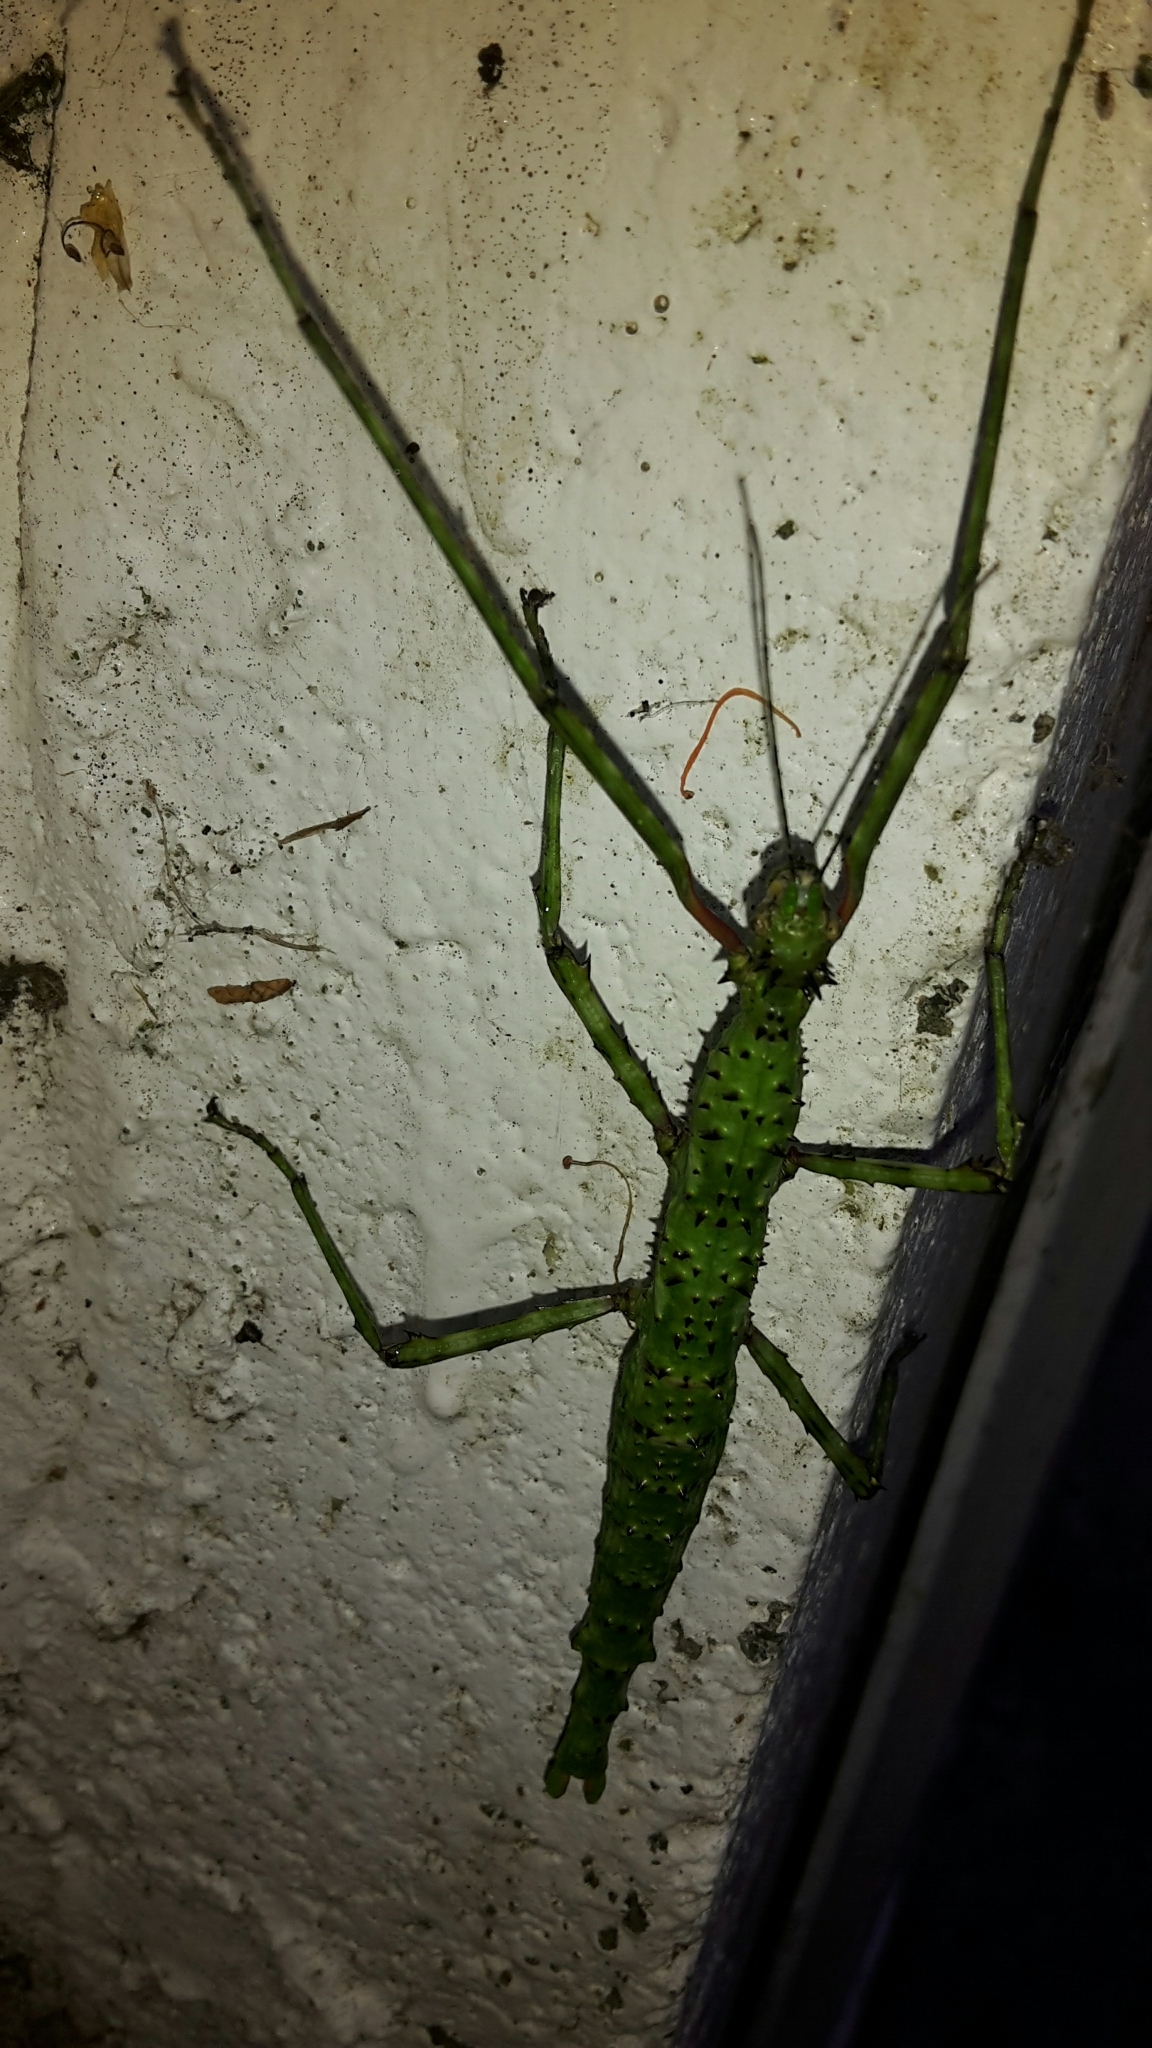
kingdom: Animalia
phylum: Arthropoda
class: Insecta
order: Phasmida
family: Phasmatidae
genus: Acanthoxyla
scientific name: Acanthoxyla prasina
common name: Black-spined stick insect
